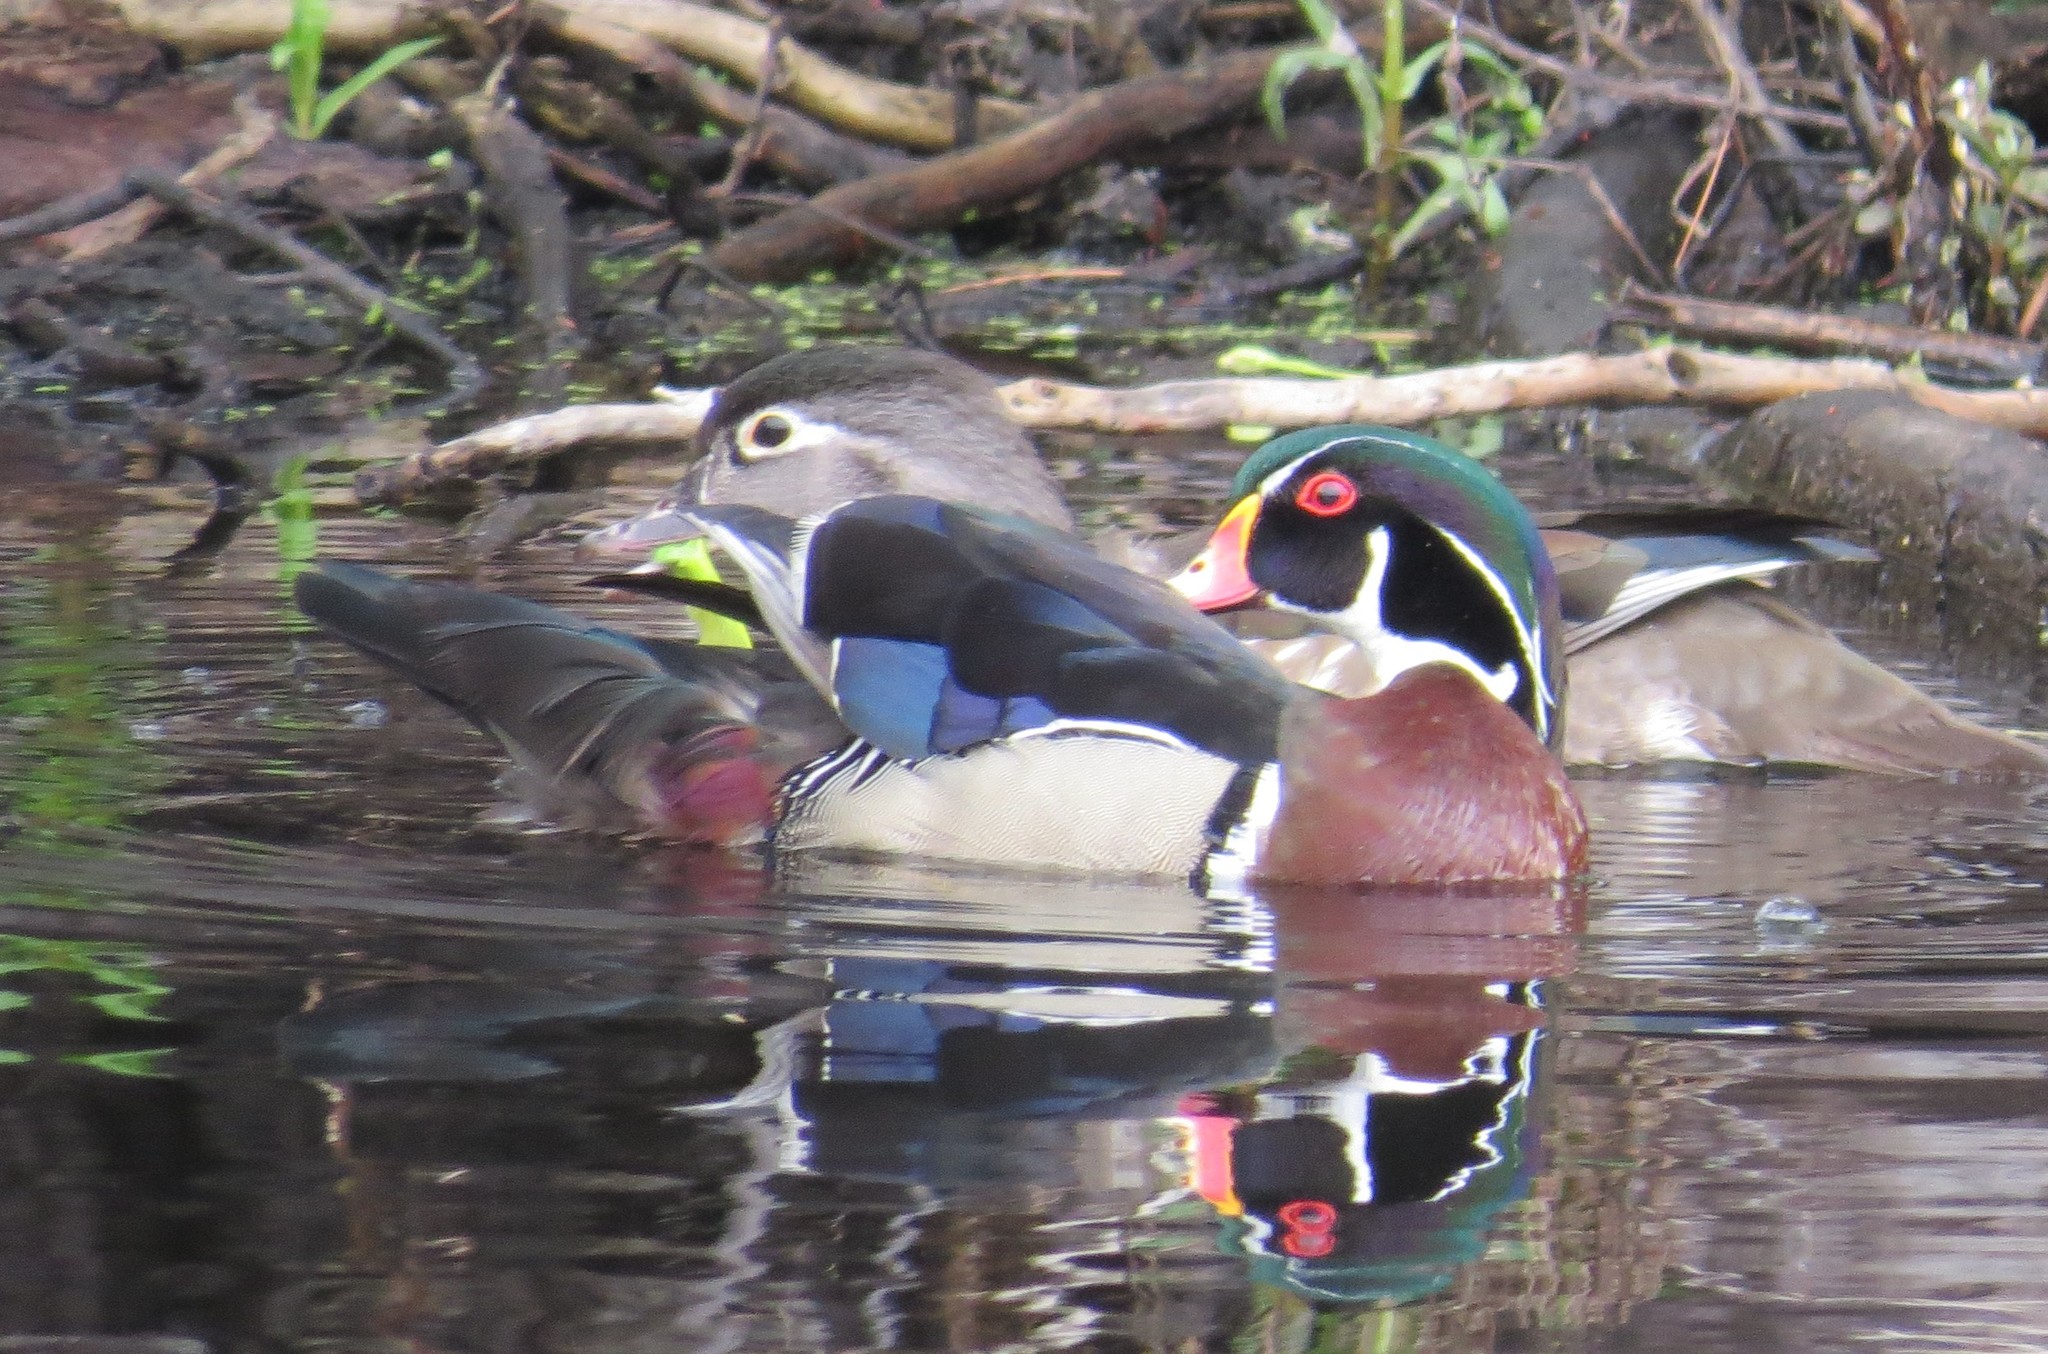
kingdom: Animalia
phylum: Chordata
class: Aves
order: Anseriformes
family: Anatidae
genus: Aix
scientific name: Aix sponsa
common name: Wood duck
